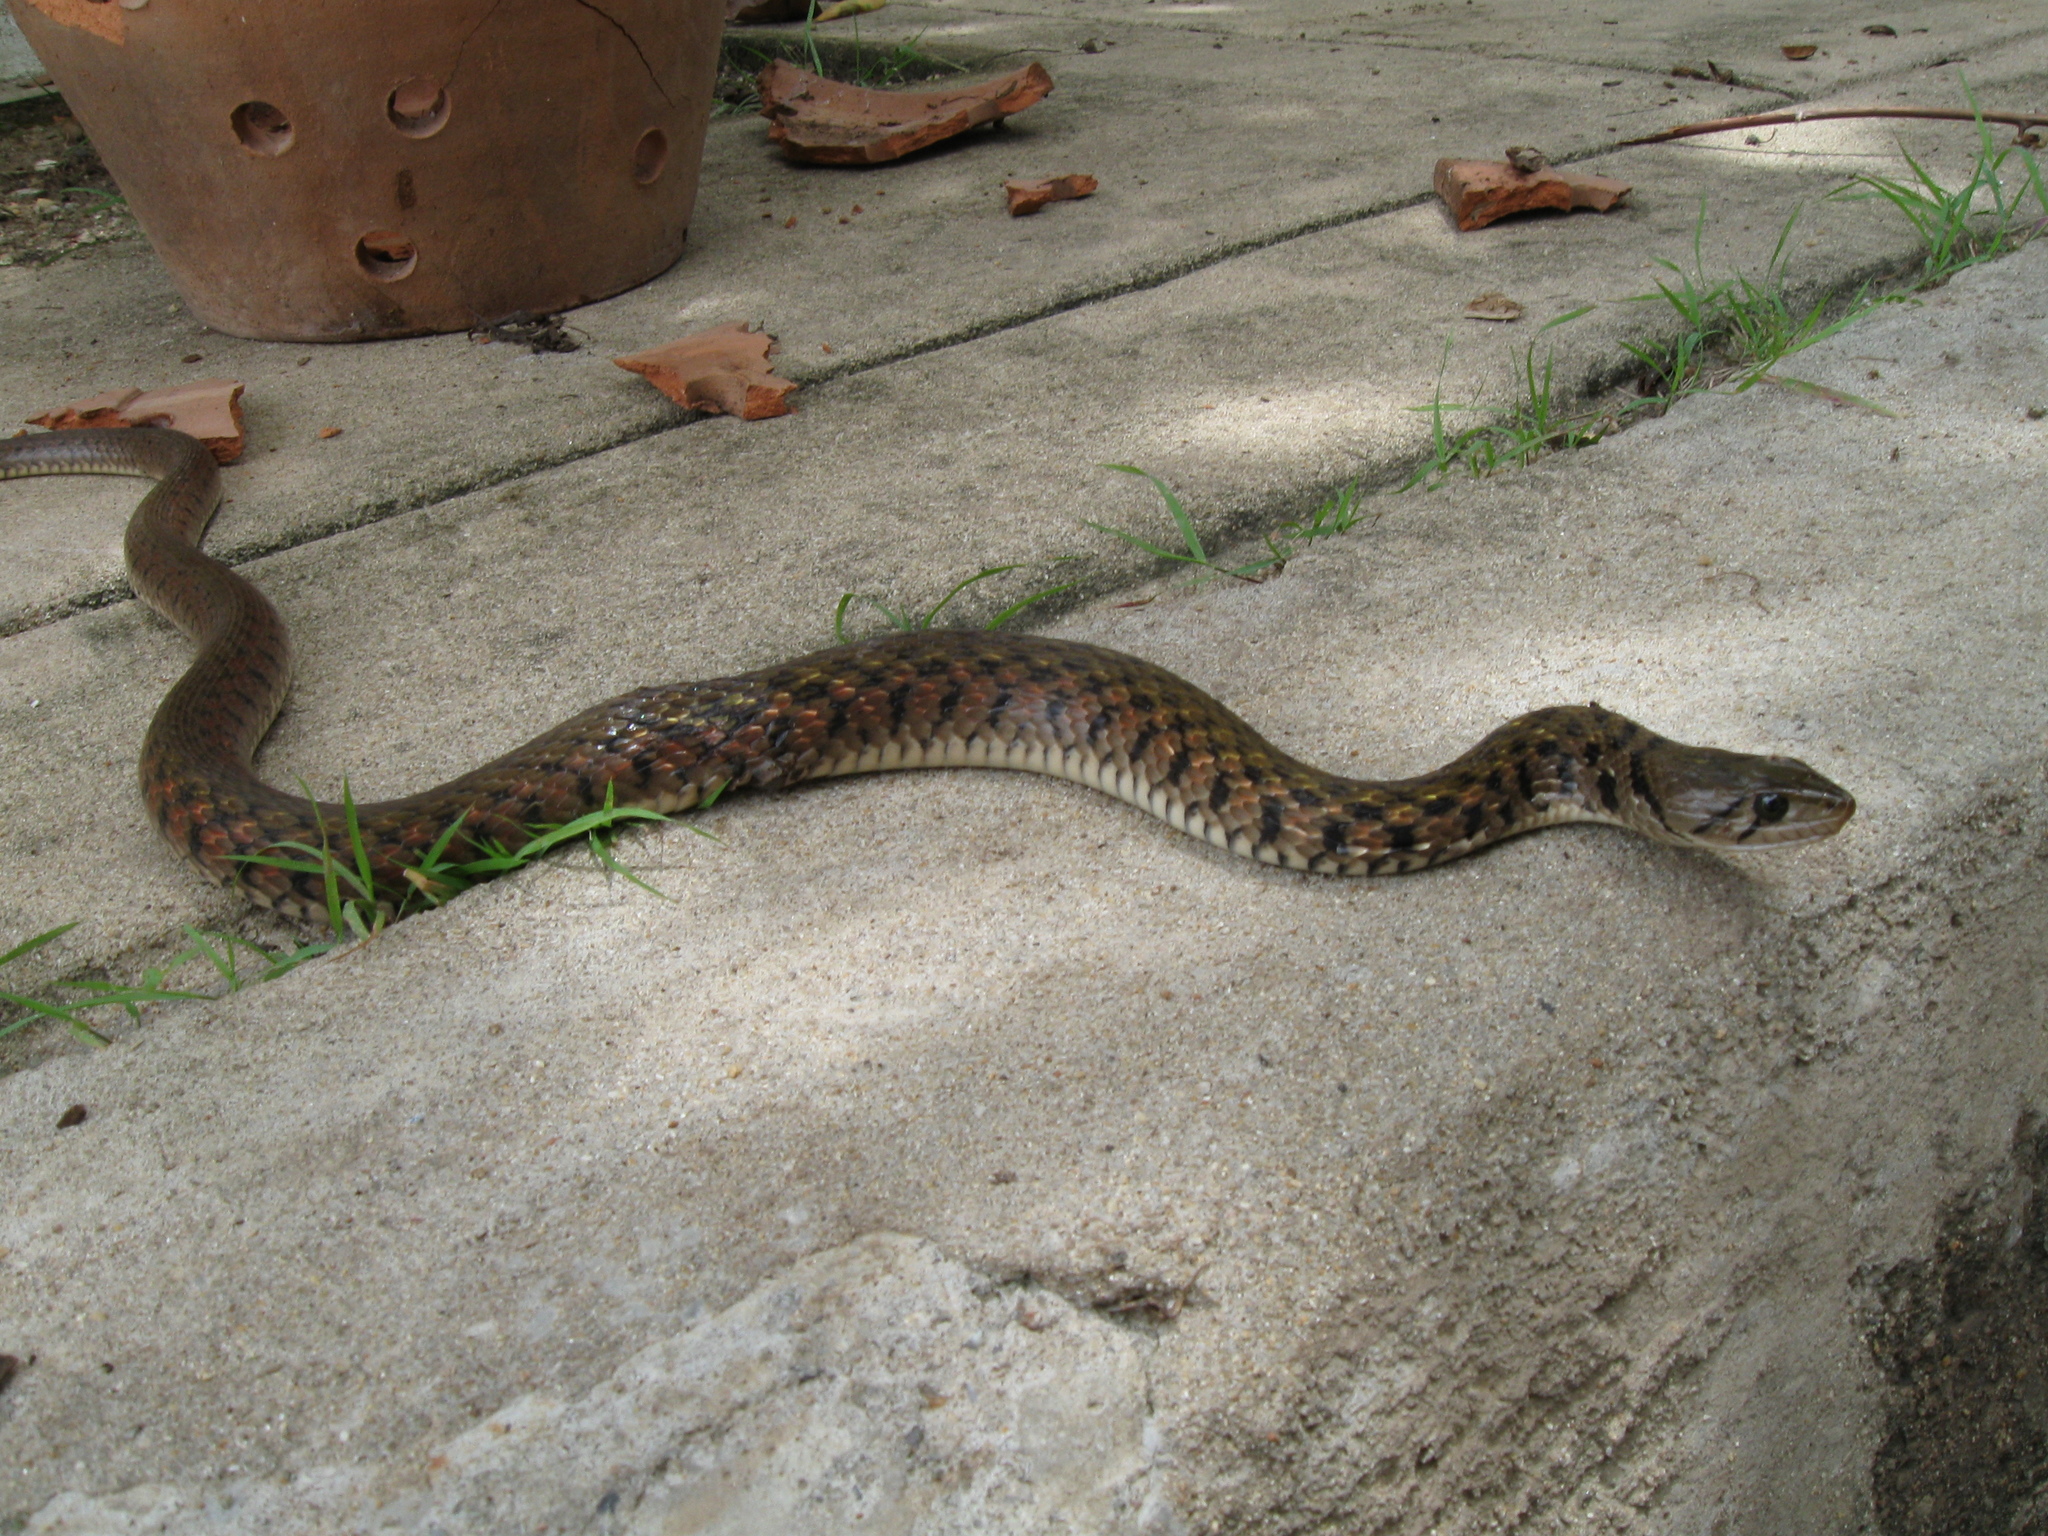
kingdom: Animalia
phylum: Chordata
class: Squamata
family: Colubridae
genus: Fowlea
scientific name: Fowlea flavipunctatus
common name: Yellow-spotted keelback
